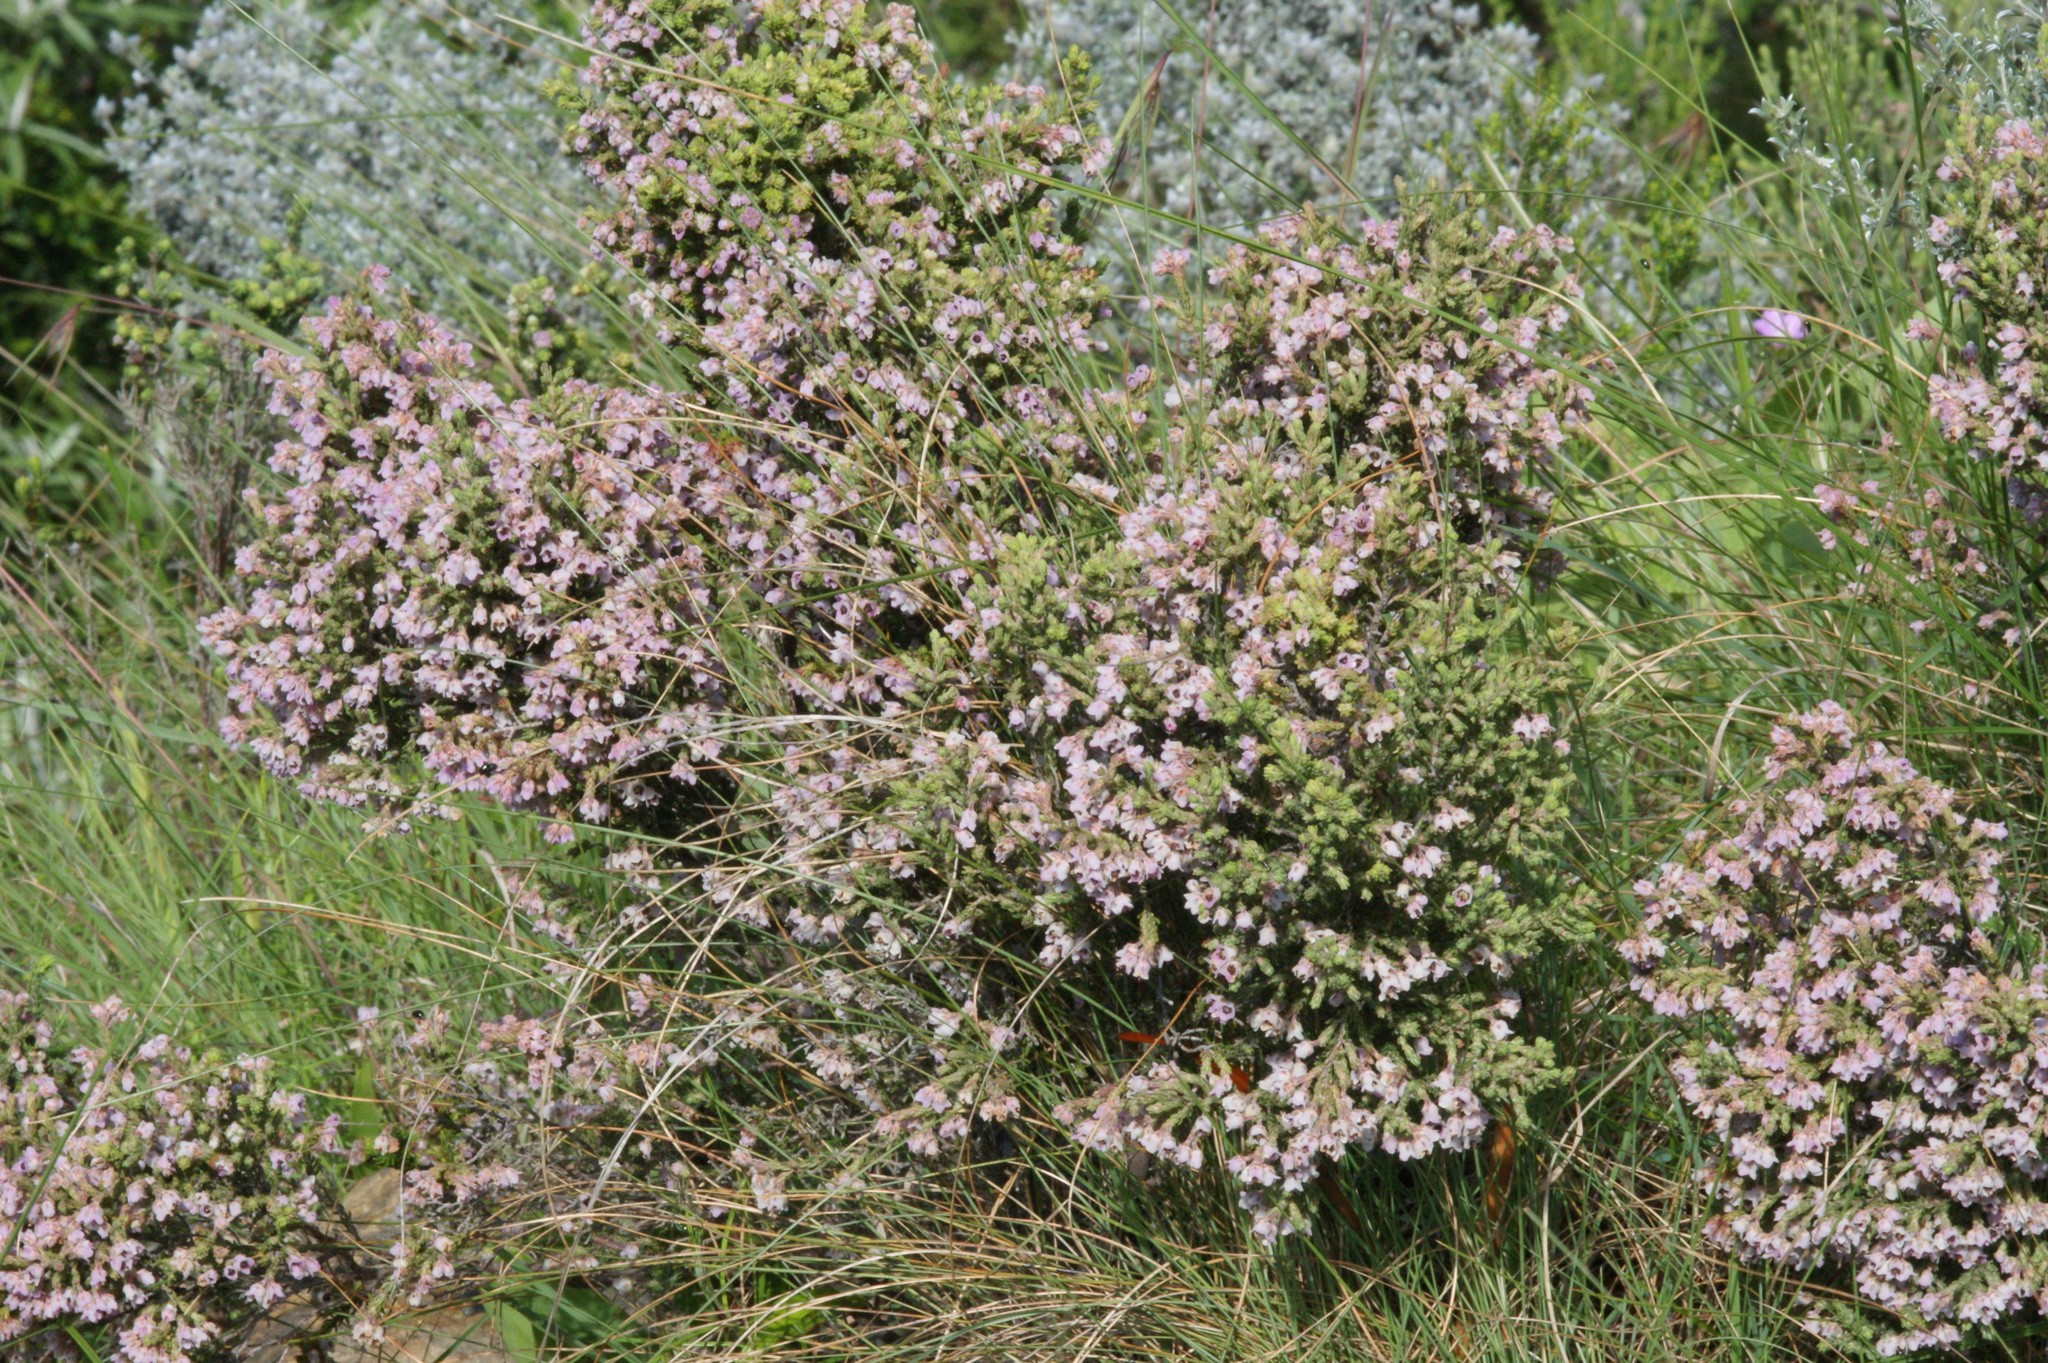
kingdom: Plantae
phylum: Tracheophyta
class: Magnoliopsida
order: Ericales
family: Ericaceae
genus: Erica
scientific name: Erica algida
